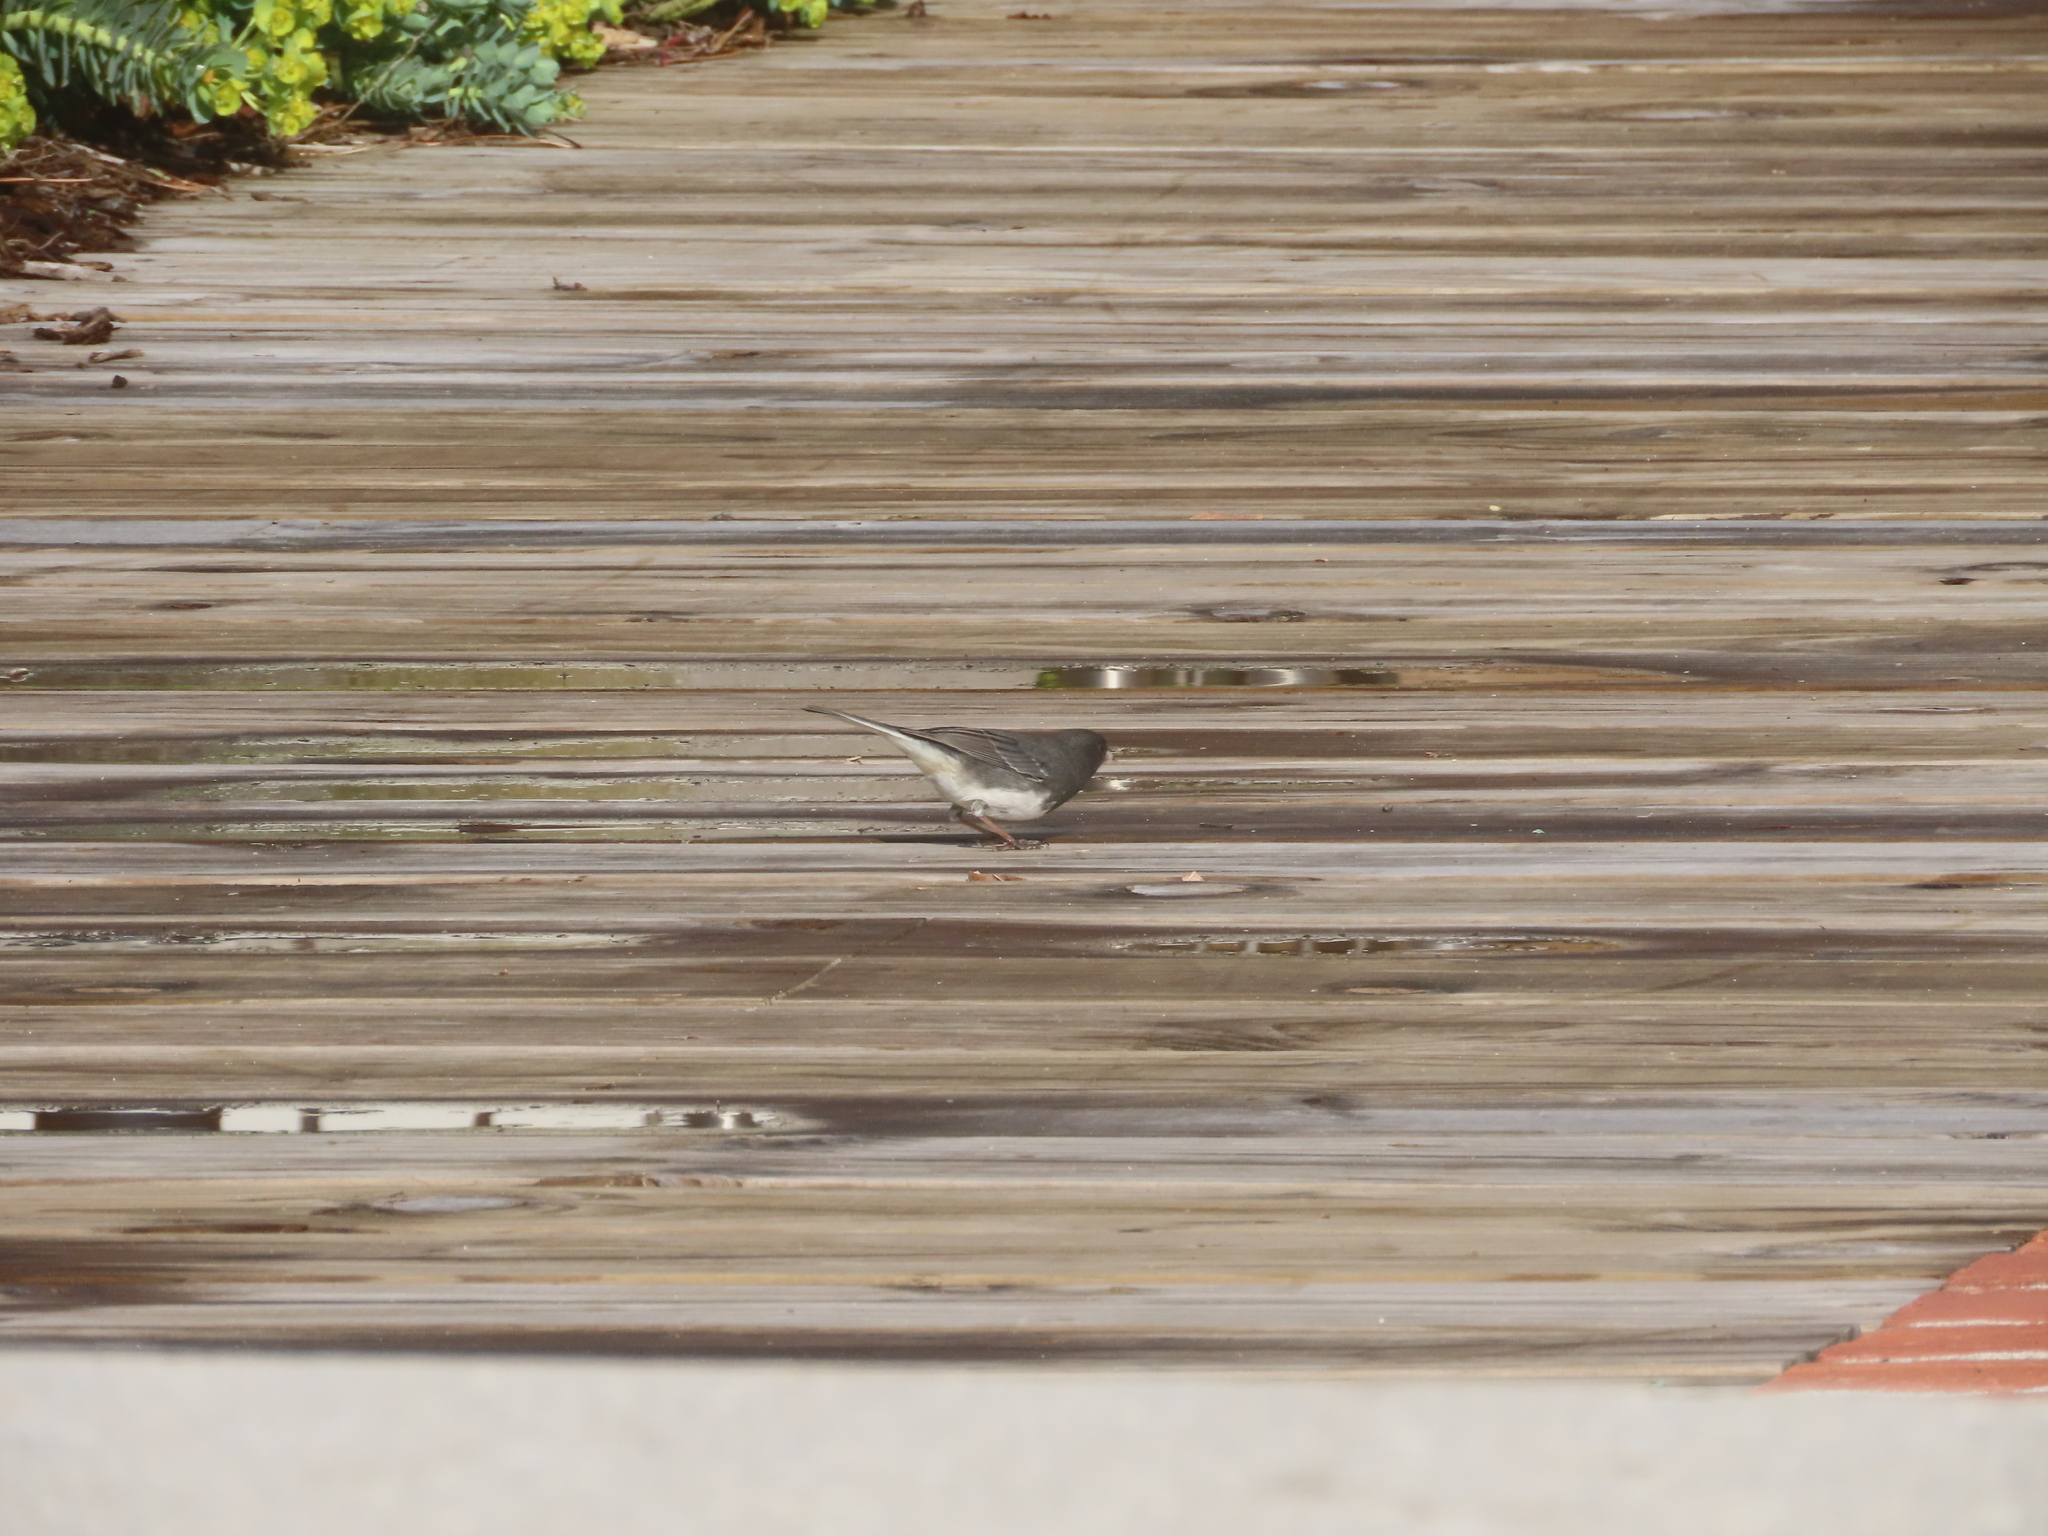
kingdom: Animalia
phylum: Chordata
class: Aves
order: Passeriformes
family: Passerellidae
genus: Junco
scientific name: Junco hyemalis
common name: Dark-eyed junco
